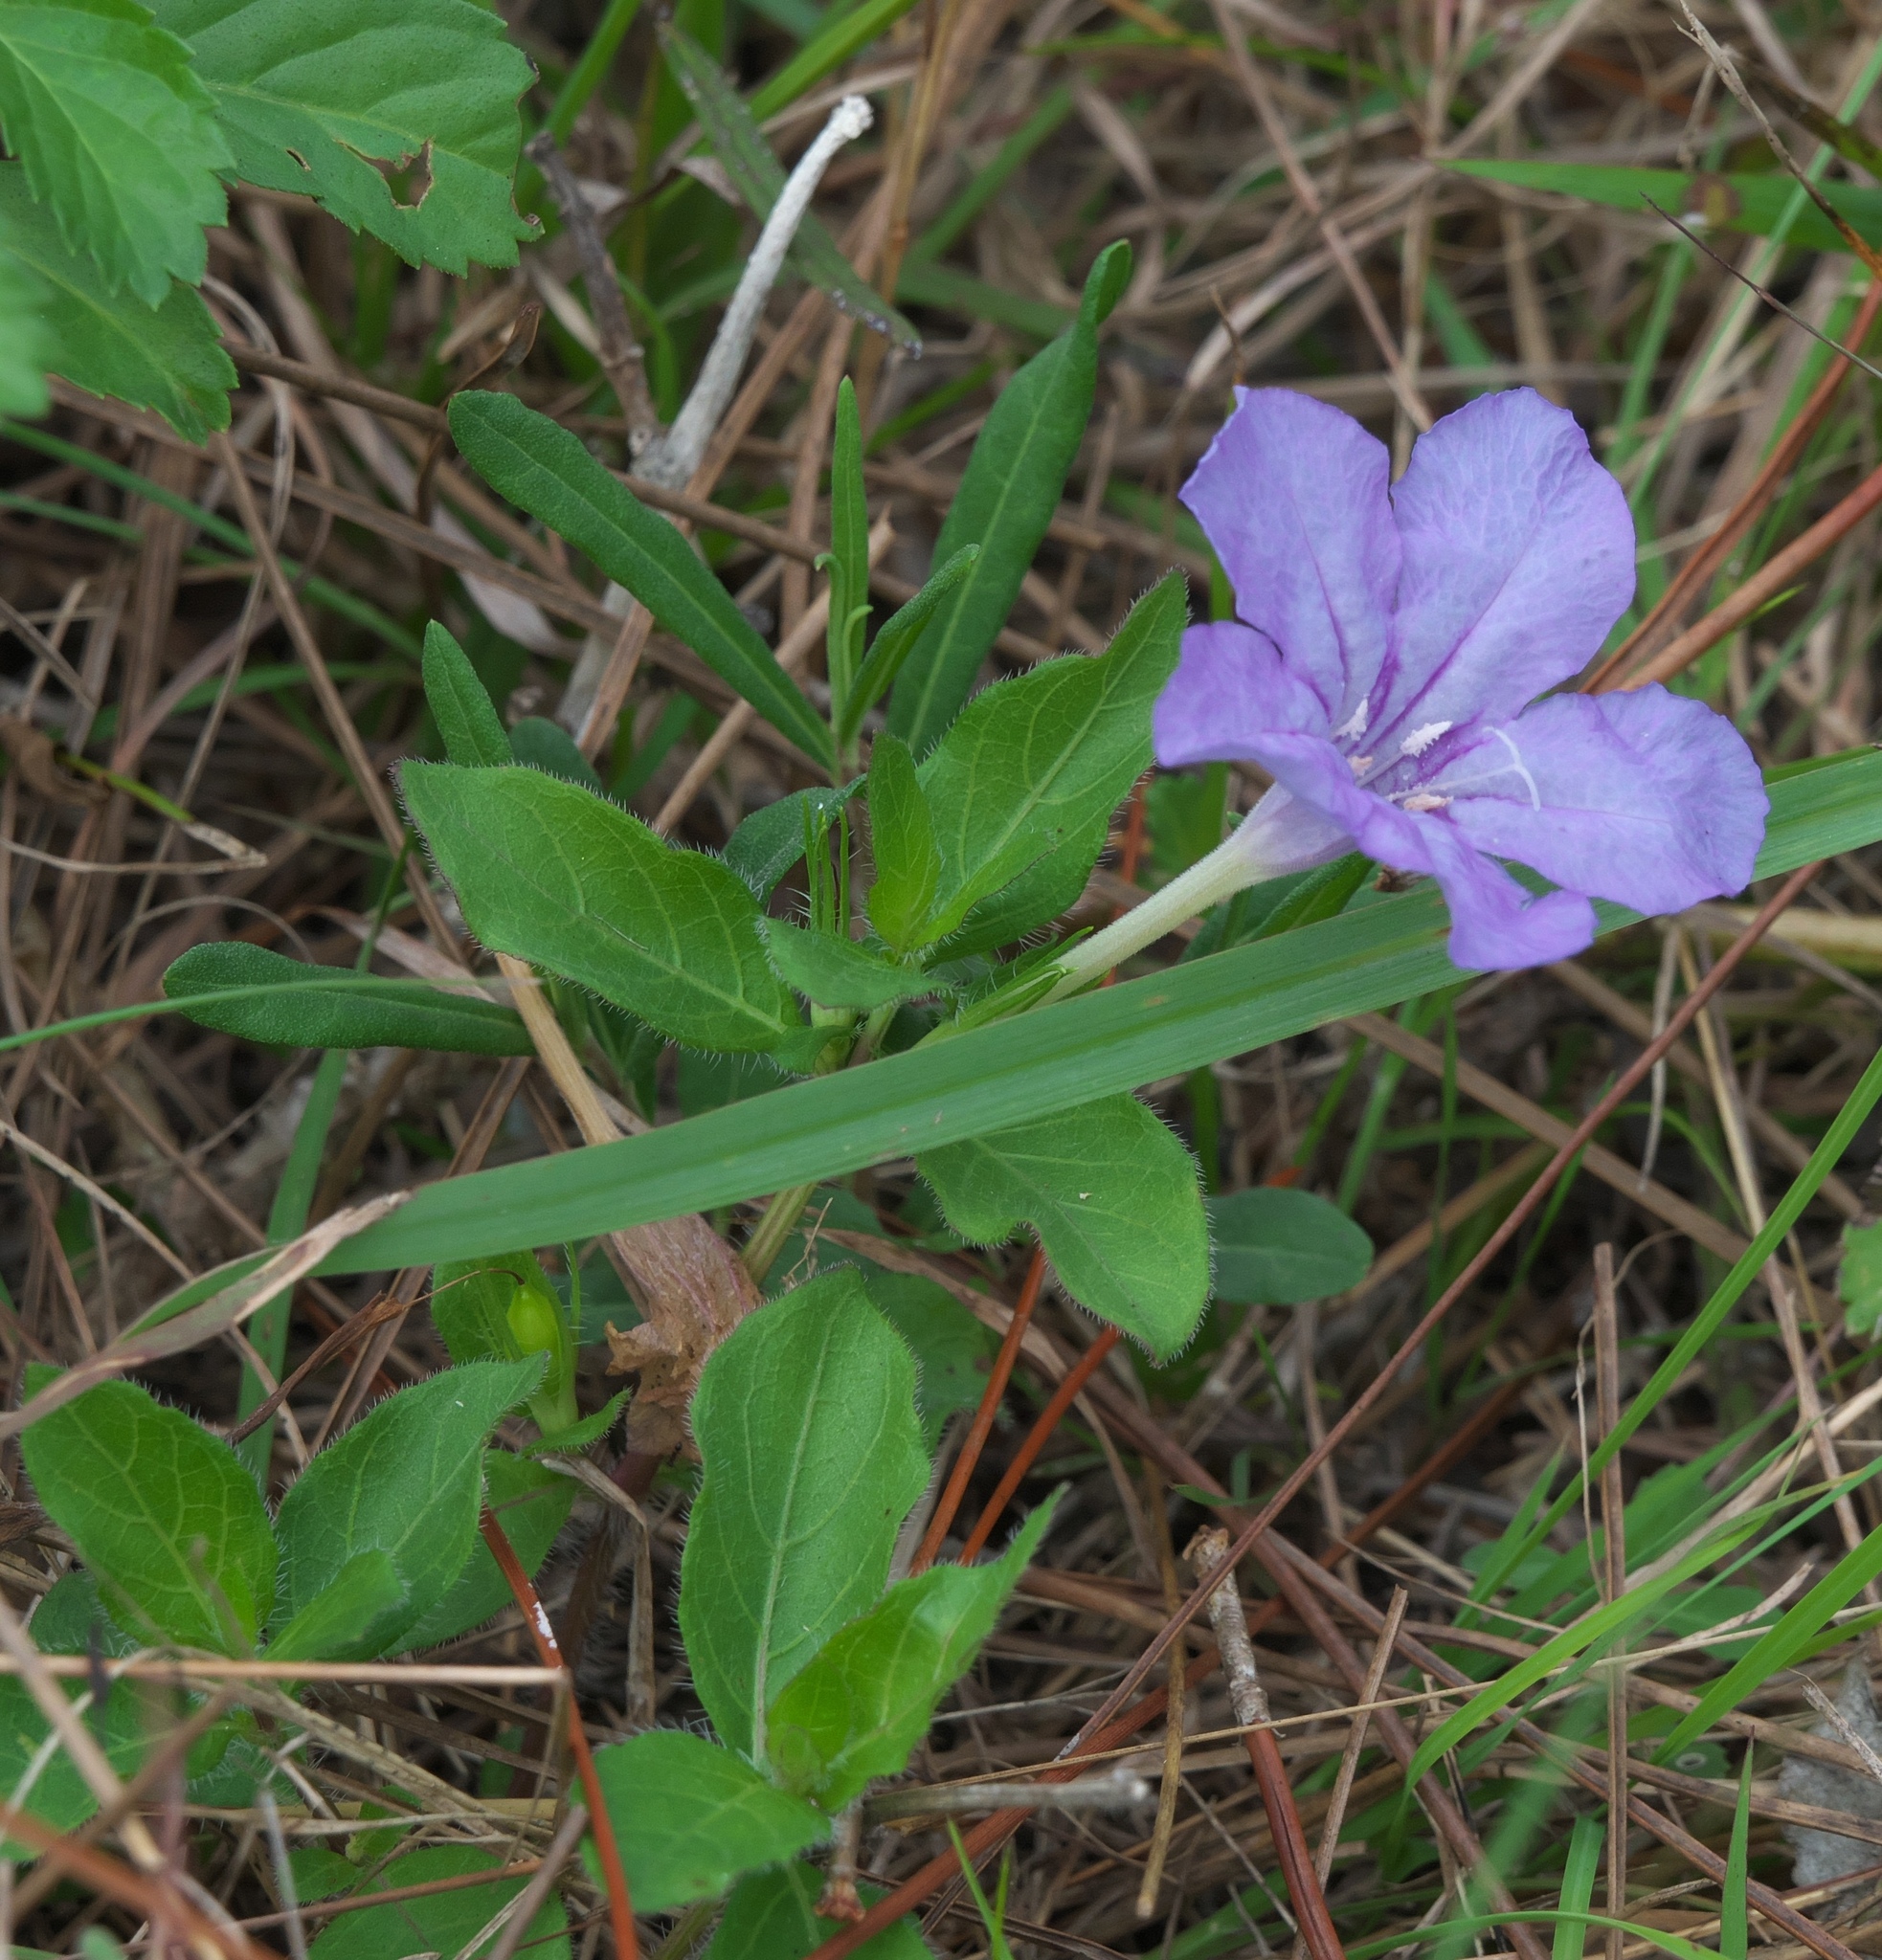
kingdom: Plantae
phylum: Tracheophyta
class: Magnoliopsida
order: Lamiales
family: Acanthaceae
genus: Ruellia
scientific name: Ruellia caroliniensis
